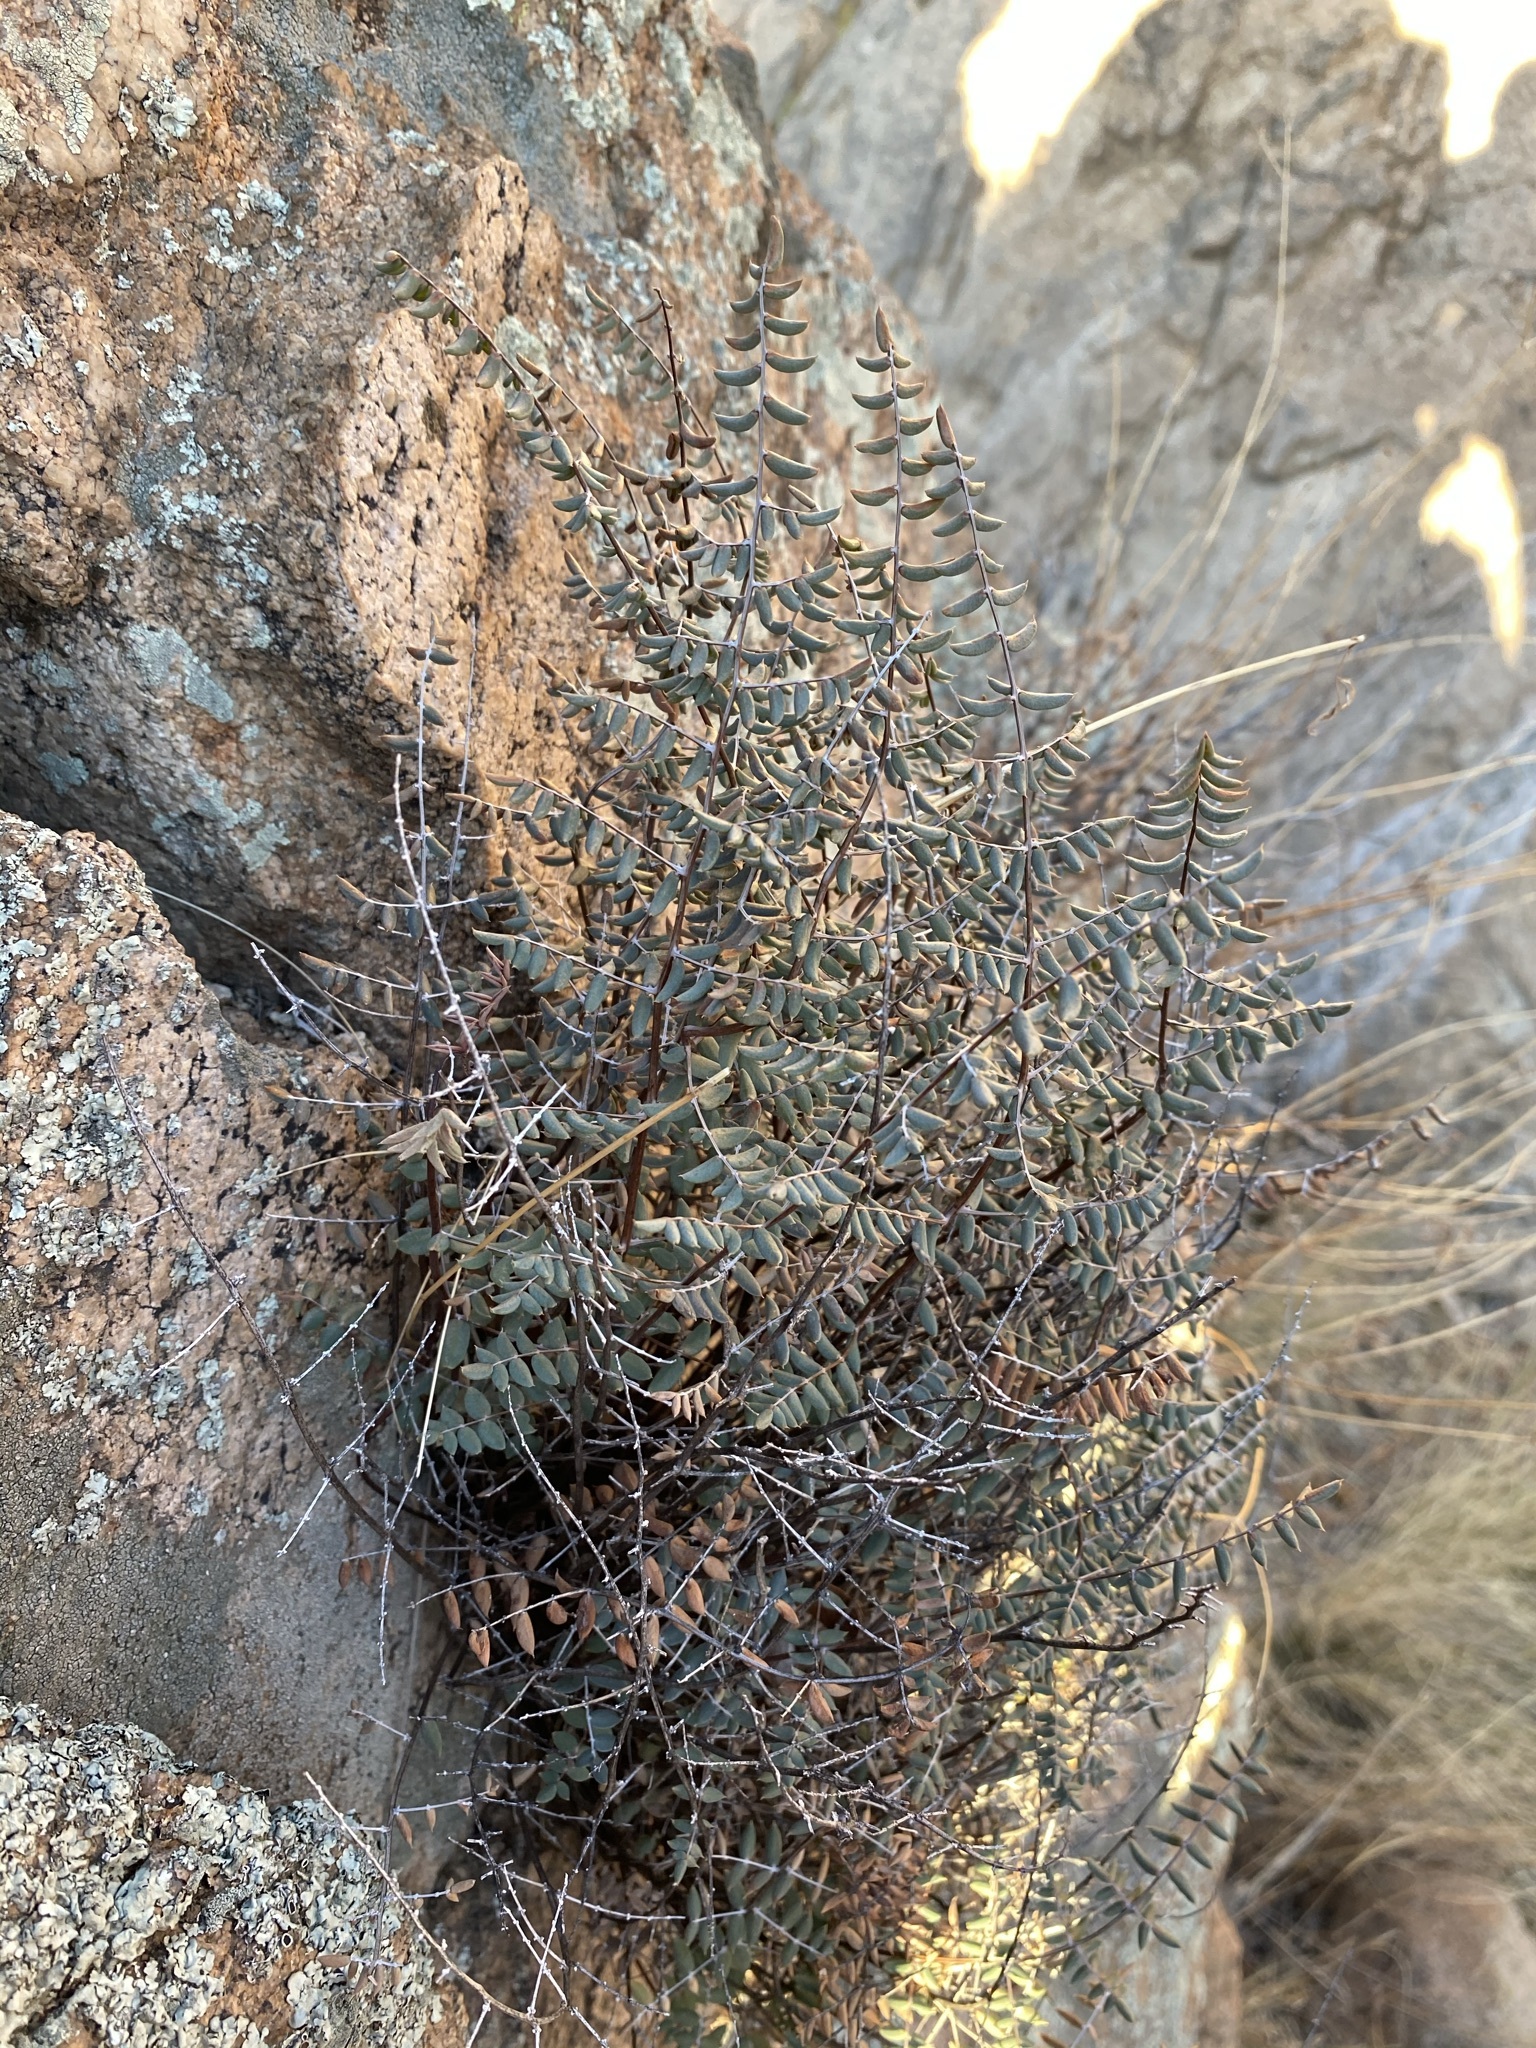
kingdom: Plantae
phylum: Tracheophyta
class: Polypodiopsida
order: Polypodiales
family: Pteridaceae
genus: Pellaea
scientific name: Pellaea truncata
